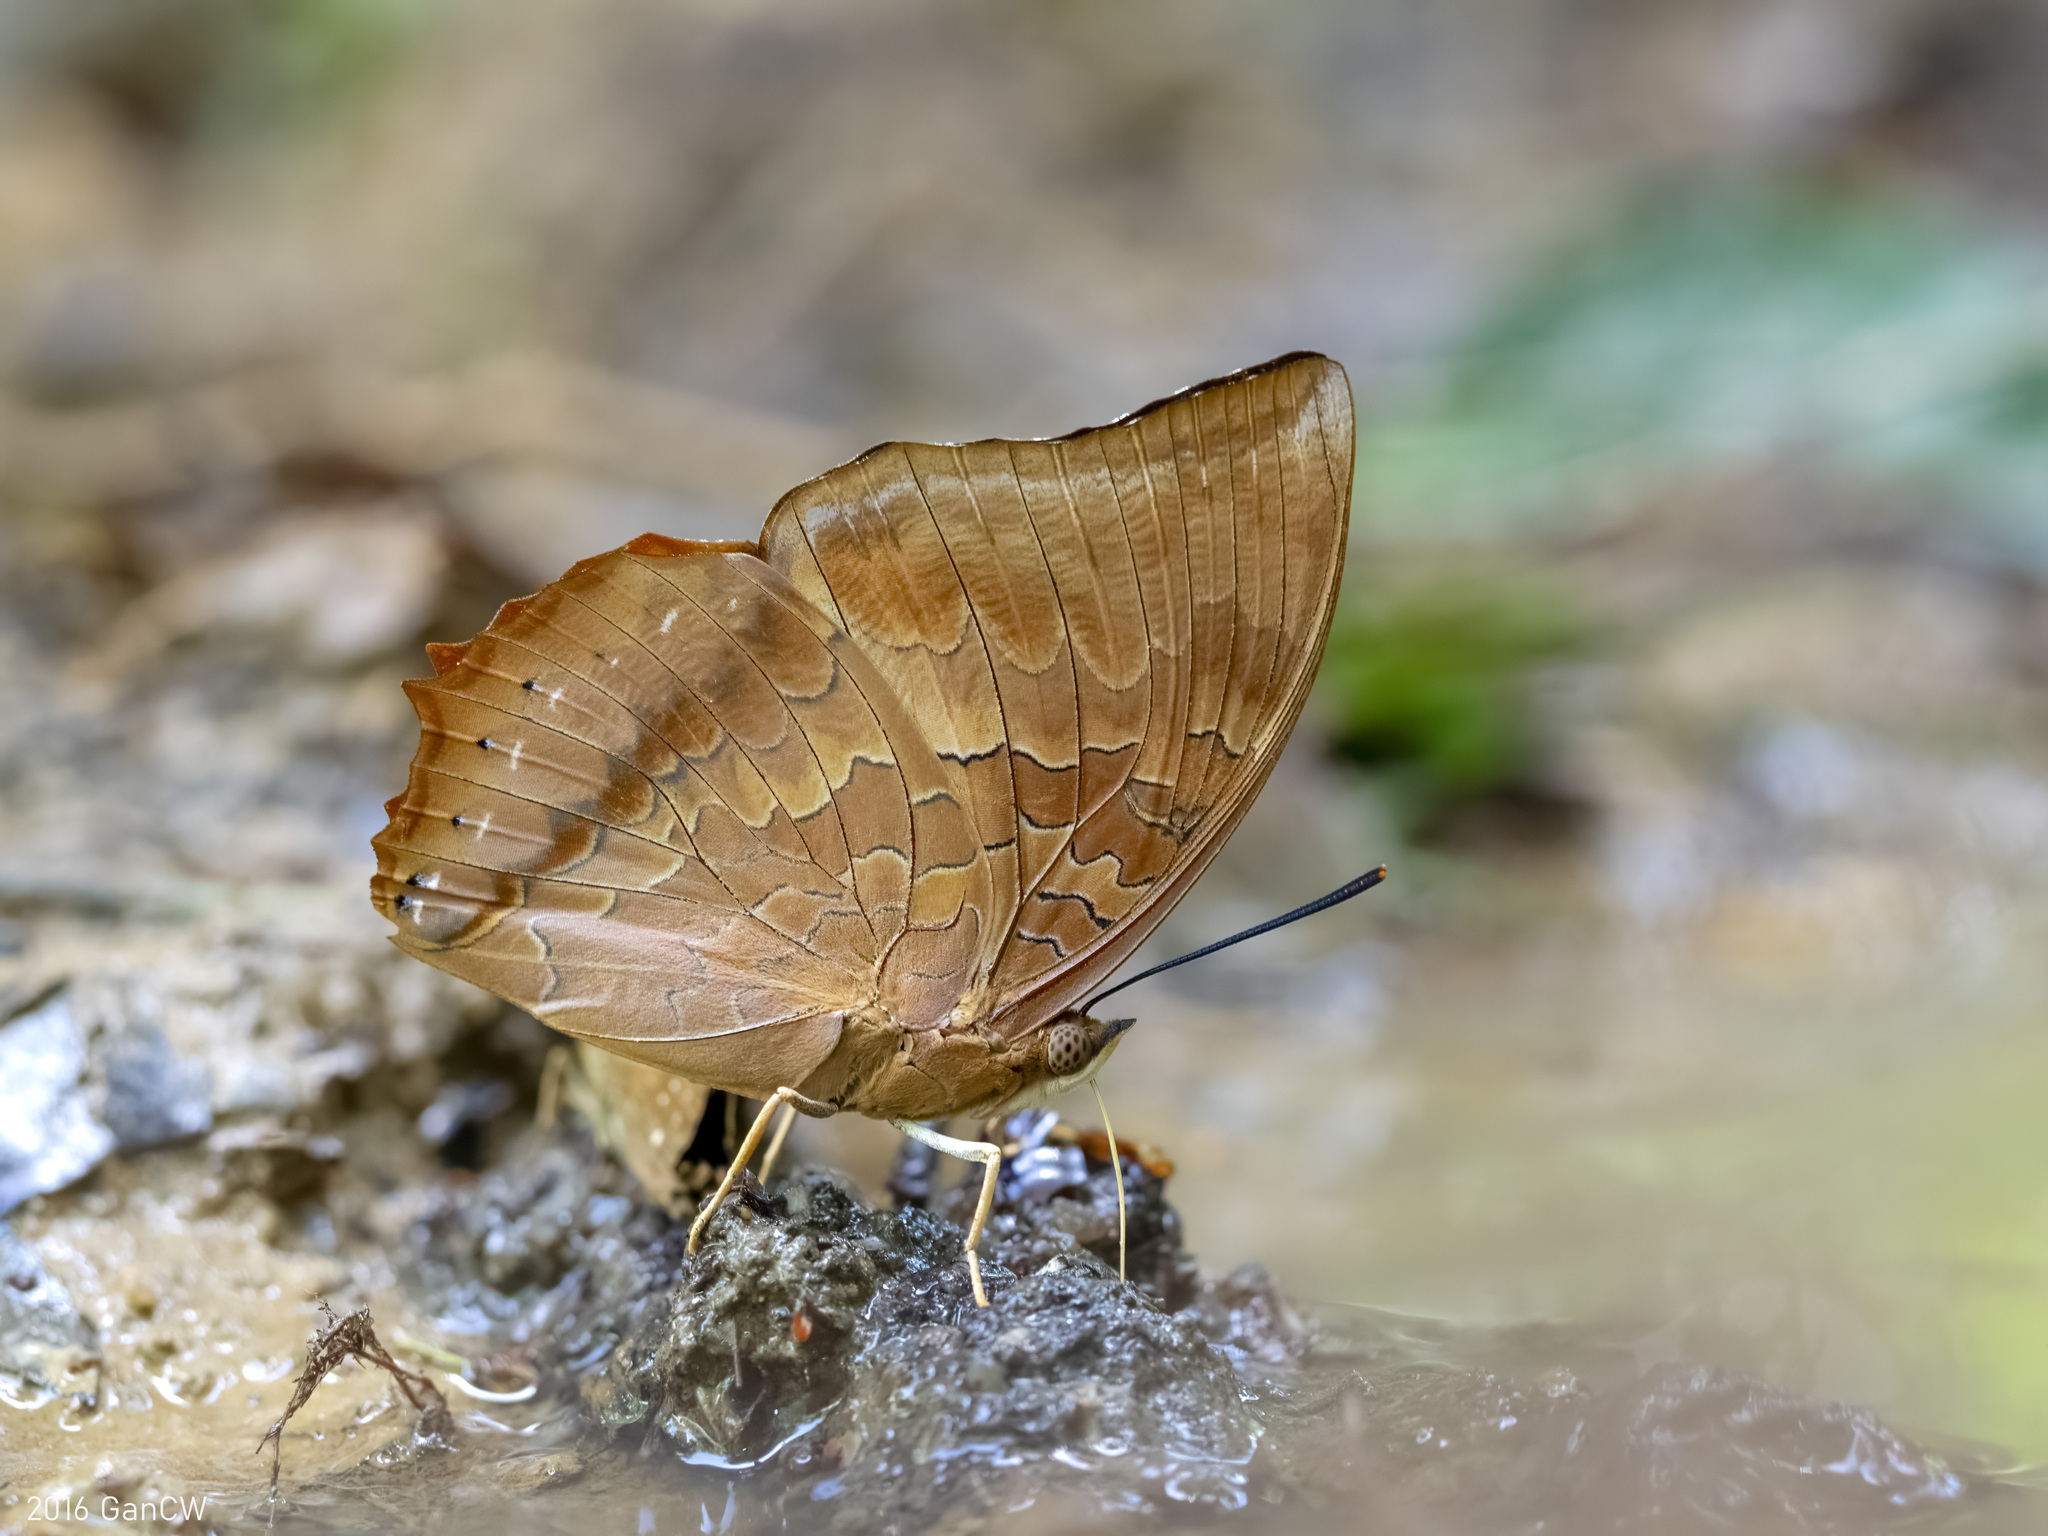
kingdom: Animalia
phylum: Arthropoda
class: Insecta
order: Lepidoptera
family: Nymphalidae
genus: Charaxes
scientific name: Charaxes bernardus
